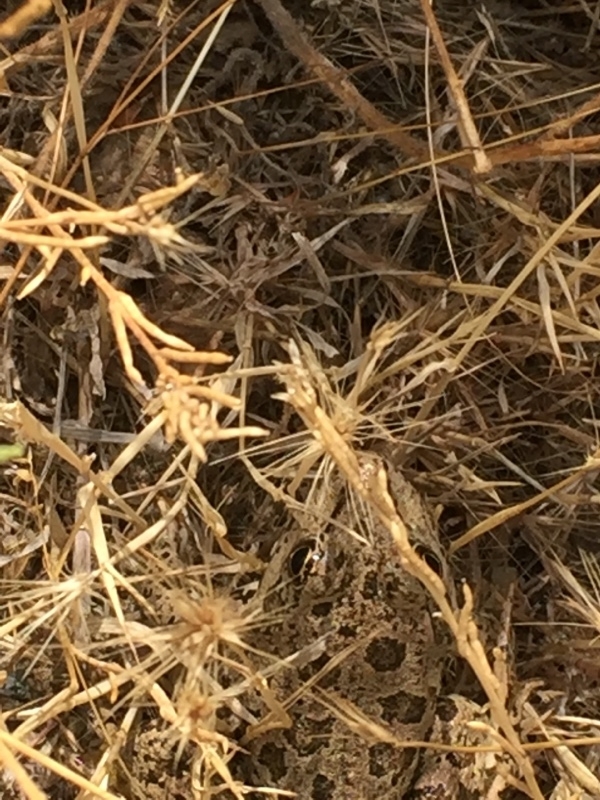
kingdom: Animalia
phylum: Chordata
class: Amphibia
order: Anura
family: Ranidae
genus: Pelophylax
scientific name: Pelophylax ridibundus
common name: Marsh frog
